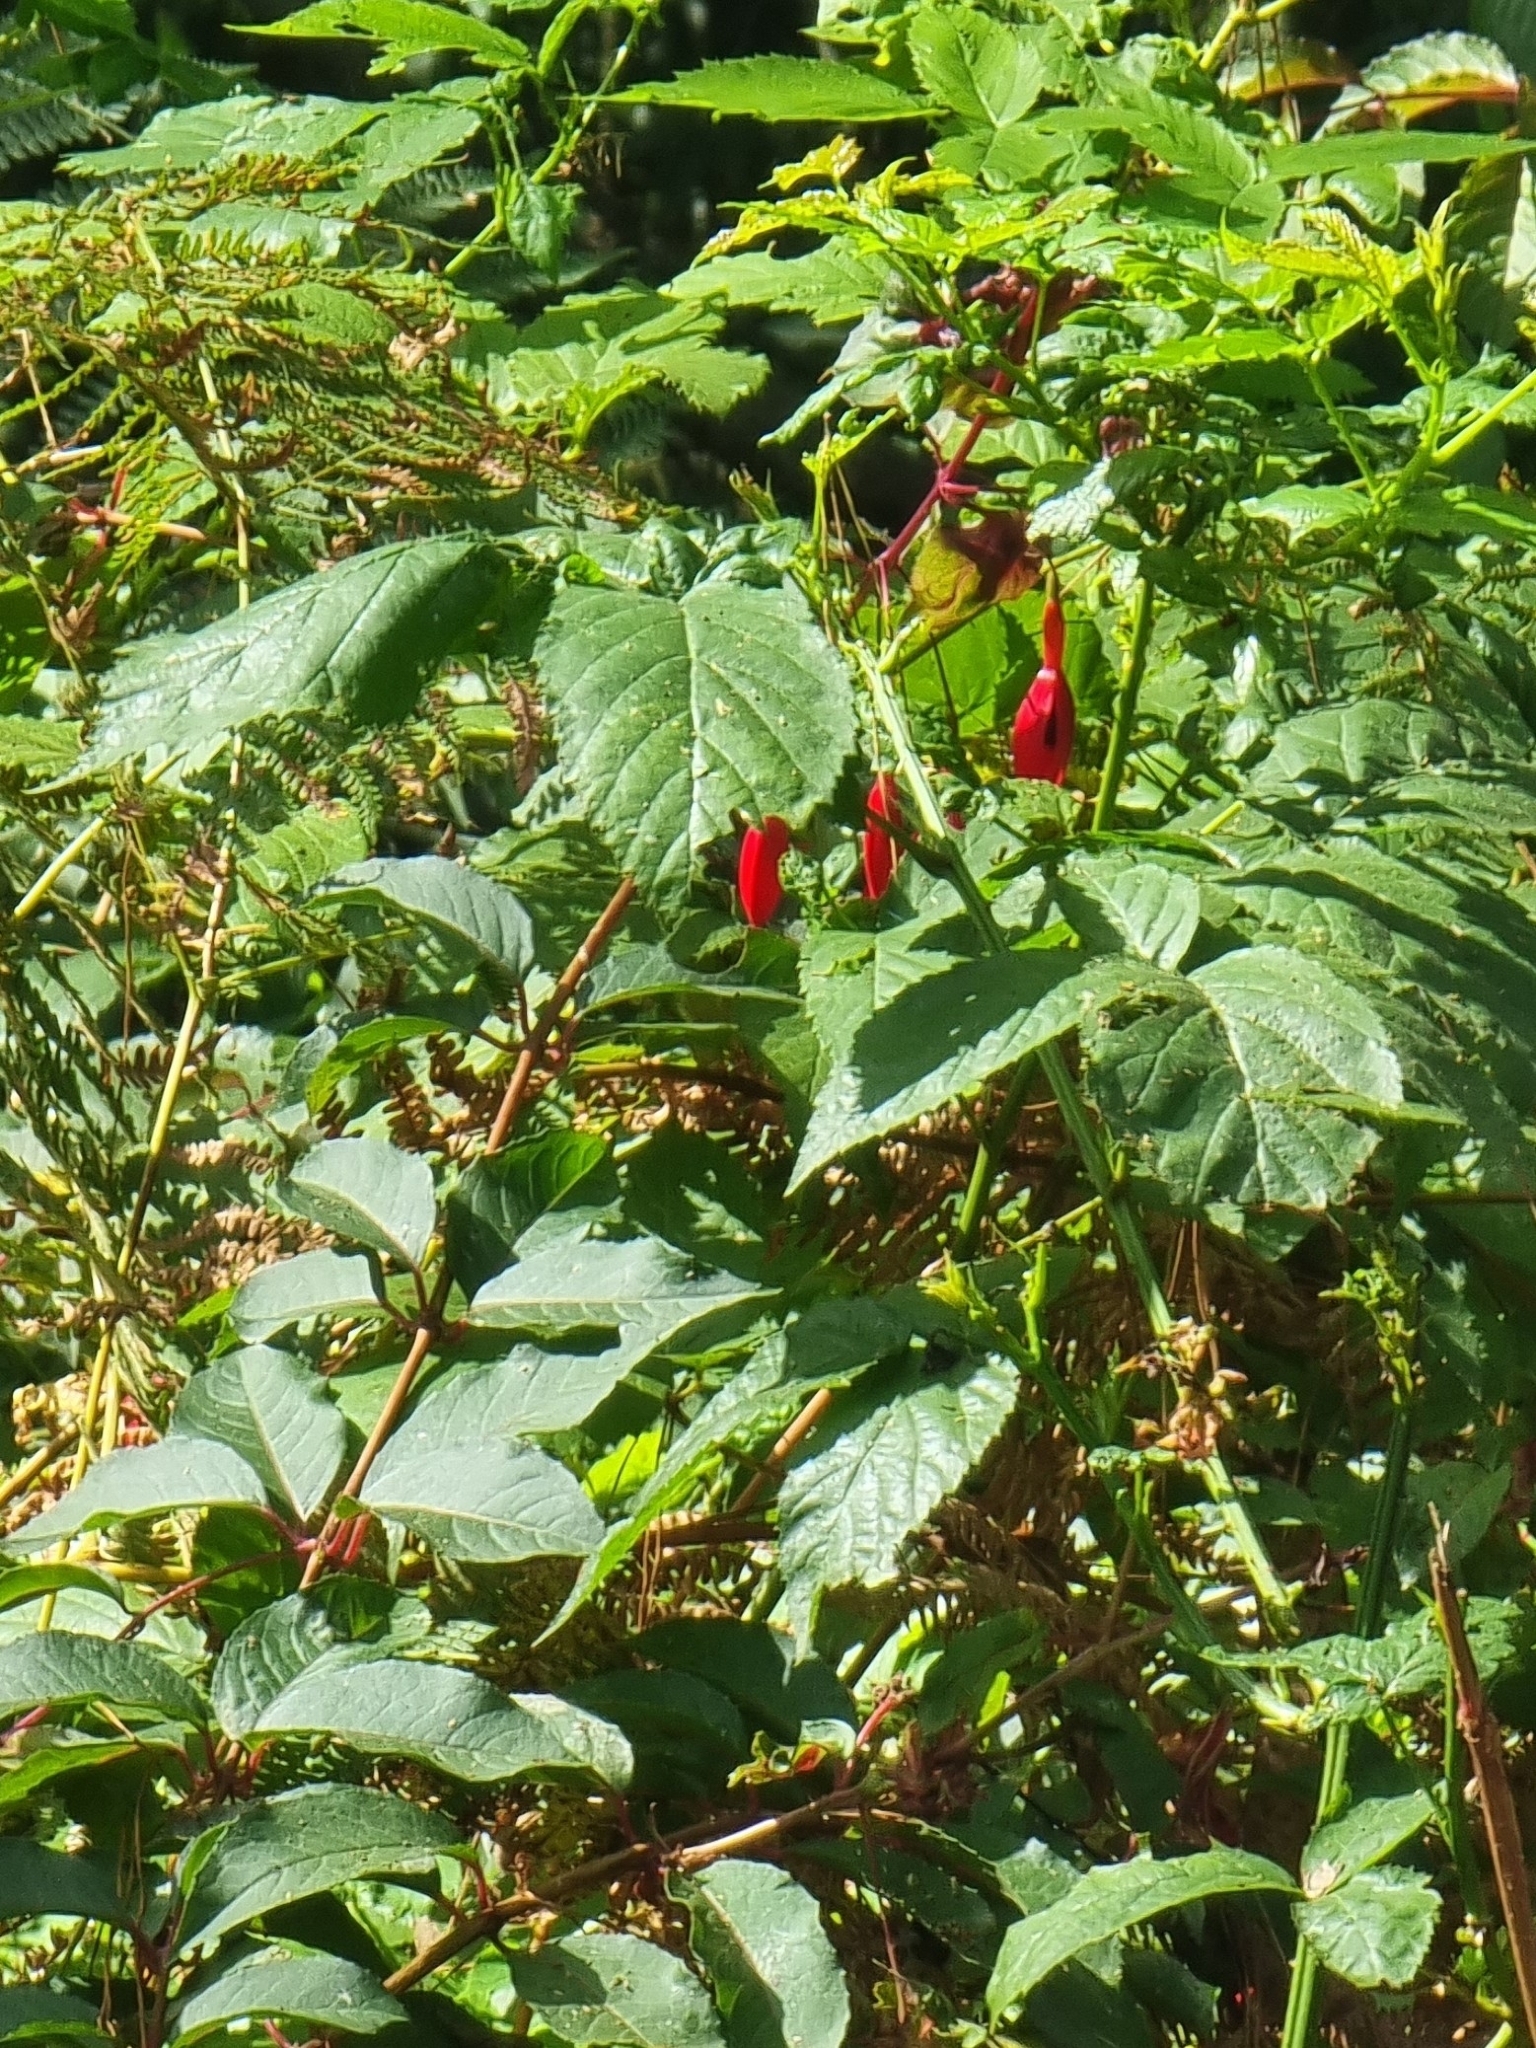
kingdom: Plantae
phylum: Tracheophyta
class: Magnoliopsida
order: Myrtales
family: Onagraceae
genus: Fuchsia
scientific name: Fuchsia magellanica
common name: Hardy fuchsia
